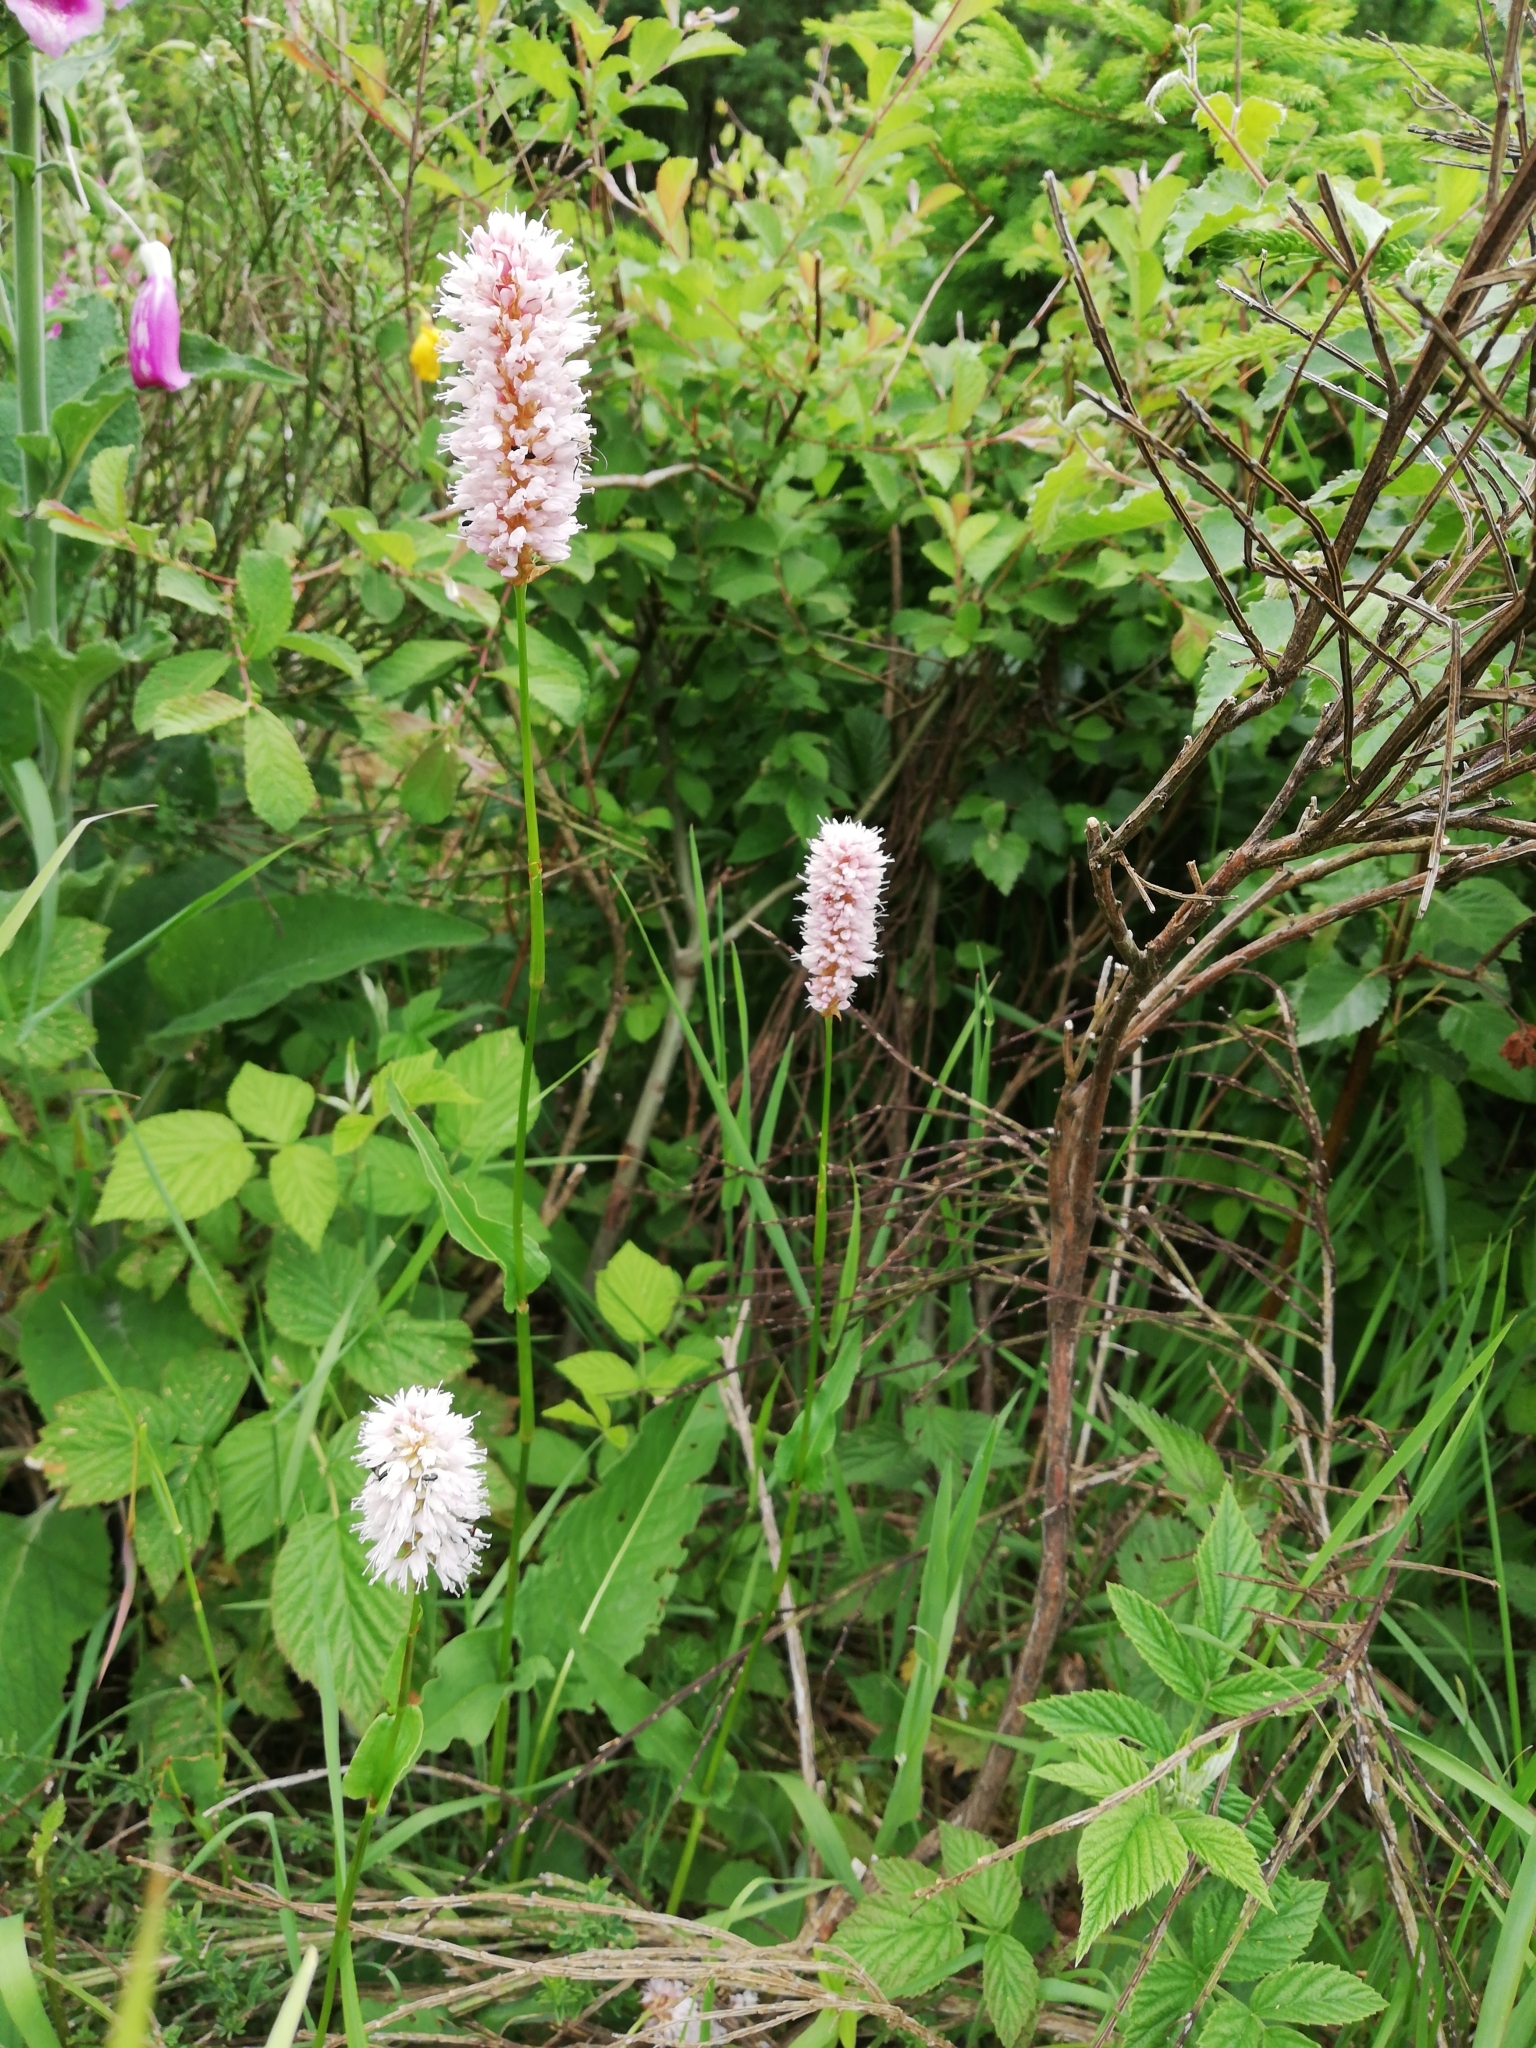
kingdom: Plantae
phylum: Tracheophyta
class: Magnoliopsida
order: Caryophyllales
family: Polygonaceae
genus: Bistorta
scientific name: Bistorta officinalis
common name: Common bistort
